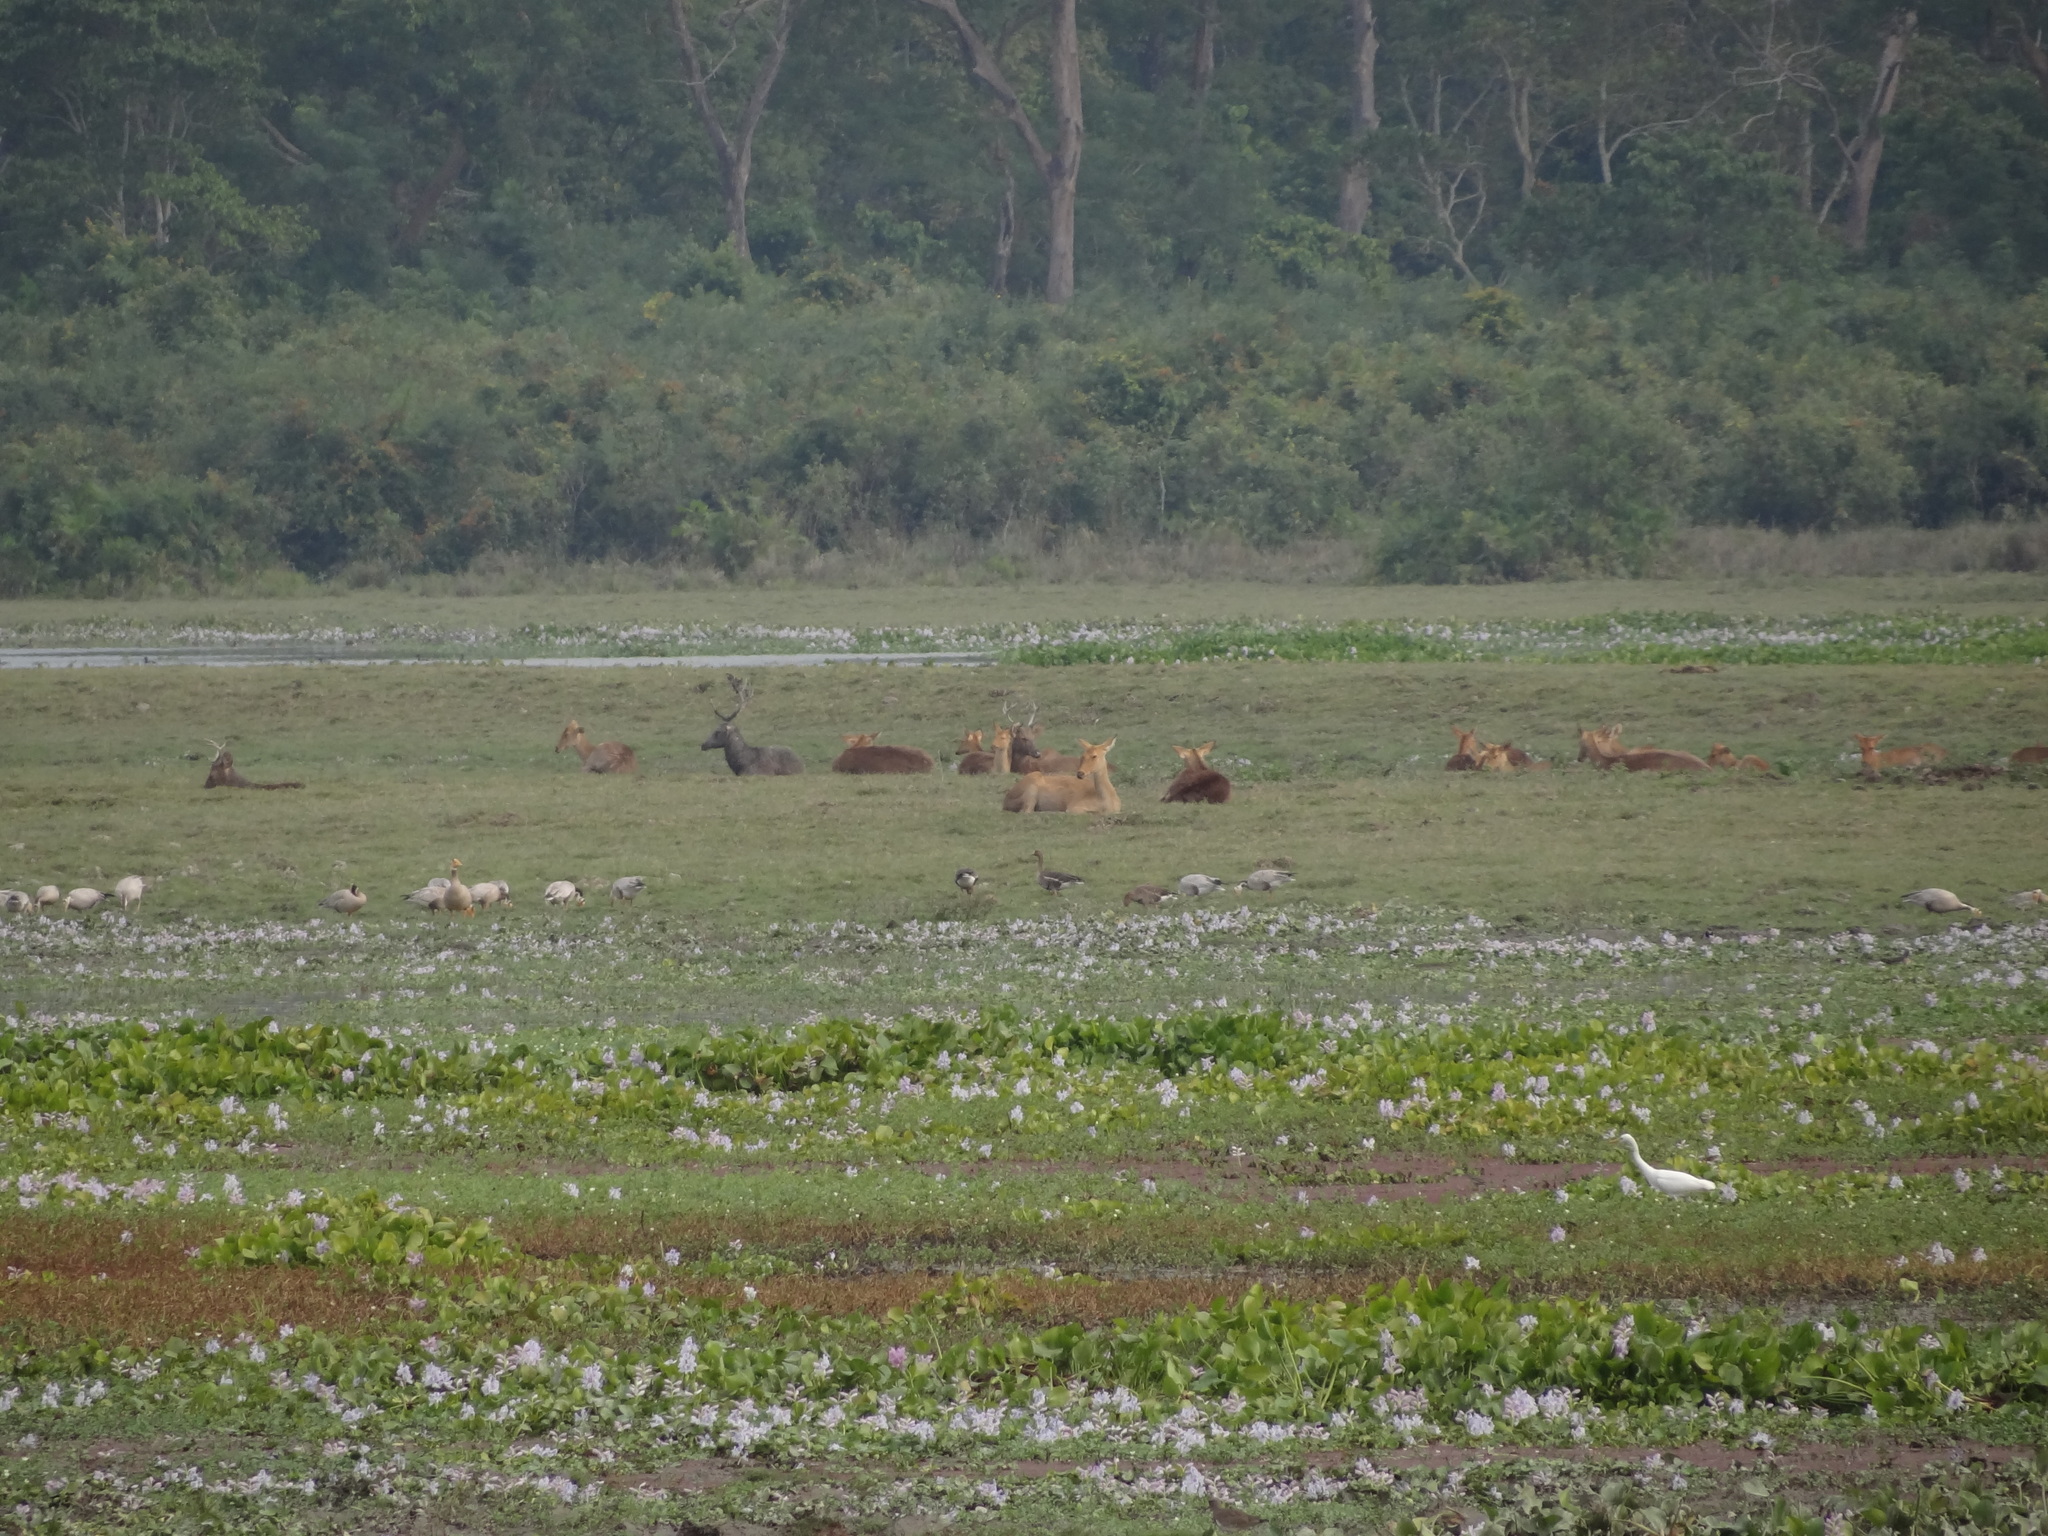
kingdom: Animalia
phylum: Chordata
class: Aves
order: Anseriformes
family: Anatidae
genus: Anser
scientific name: Anser albifrons
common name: Greater white-fronted goose
